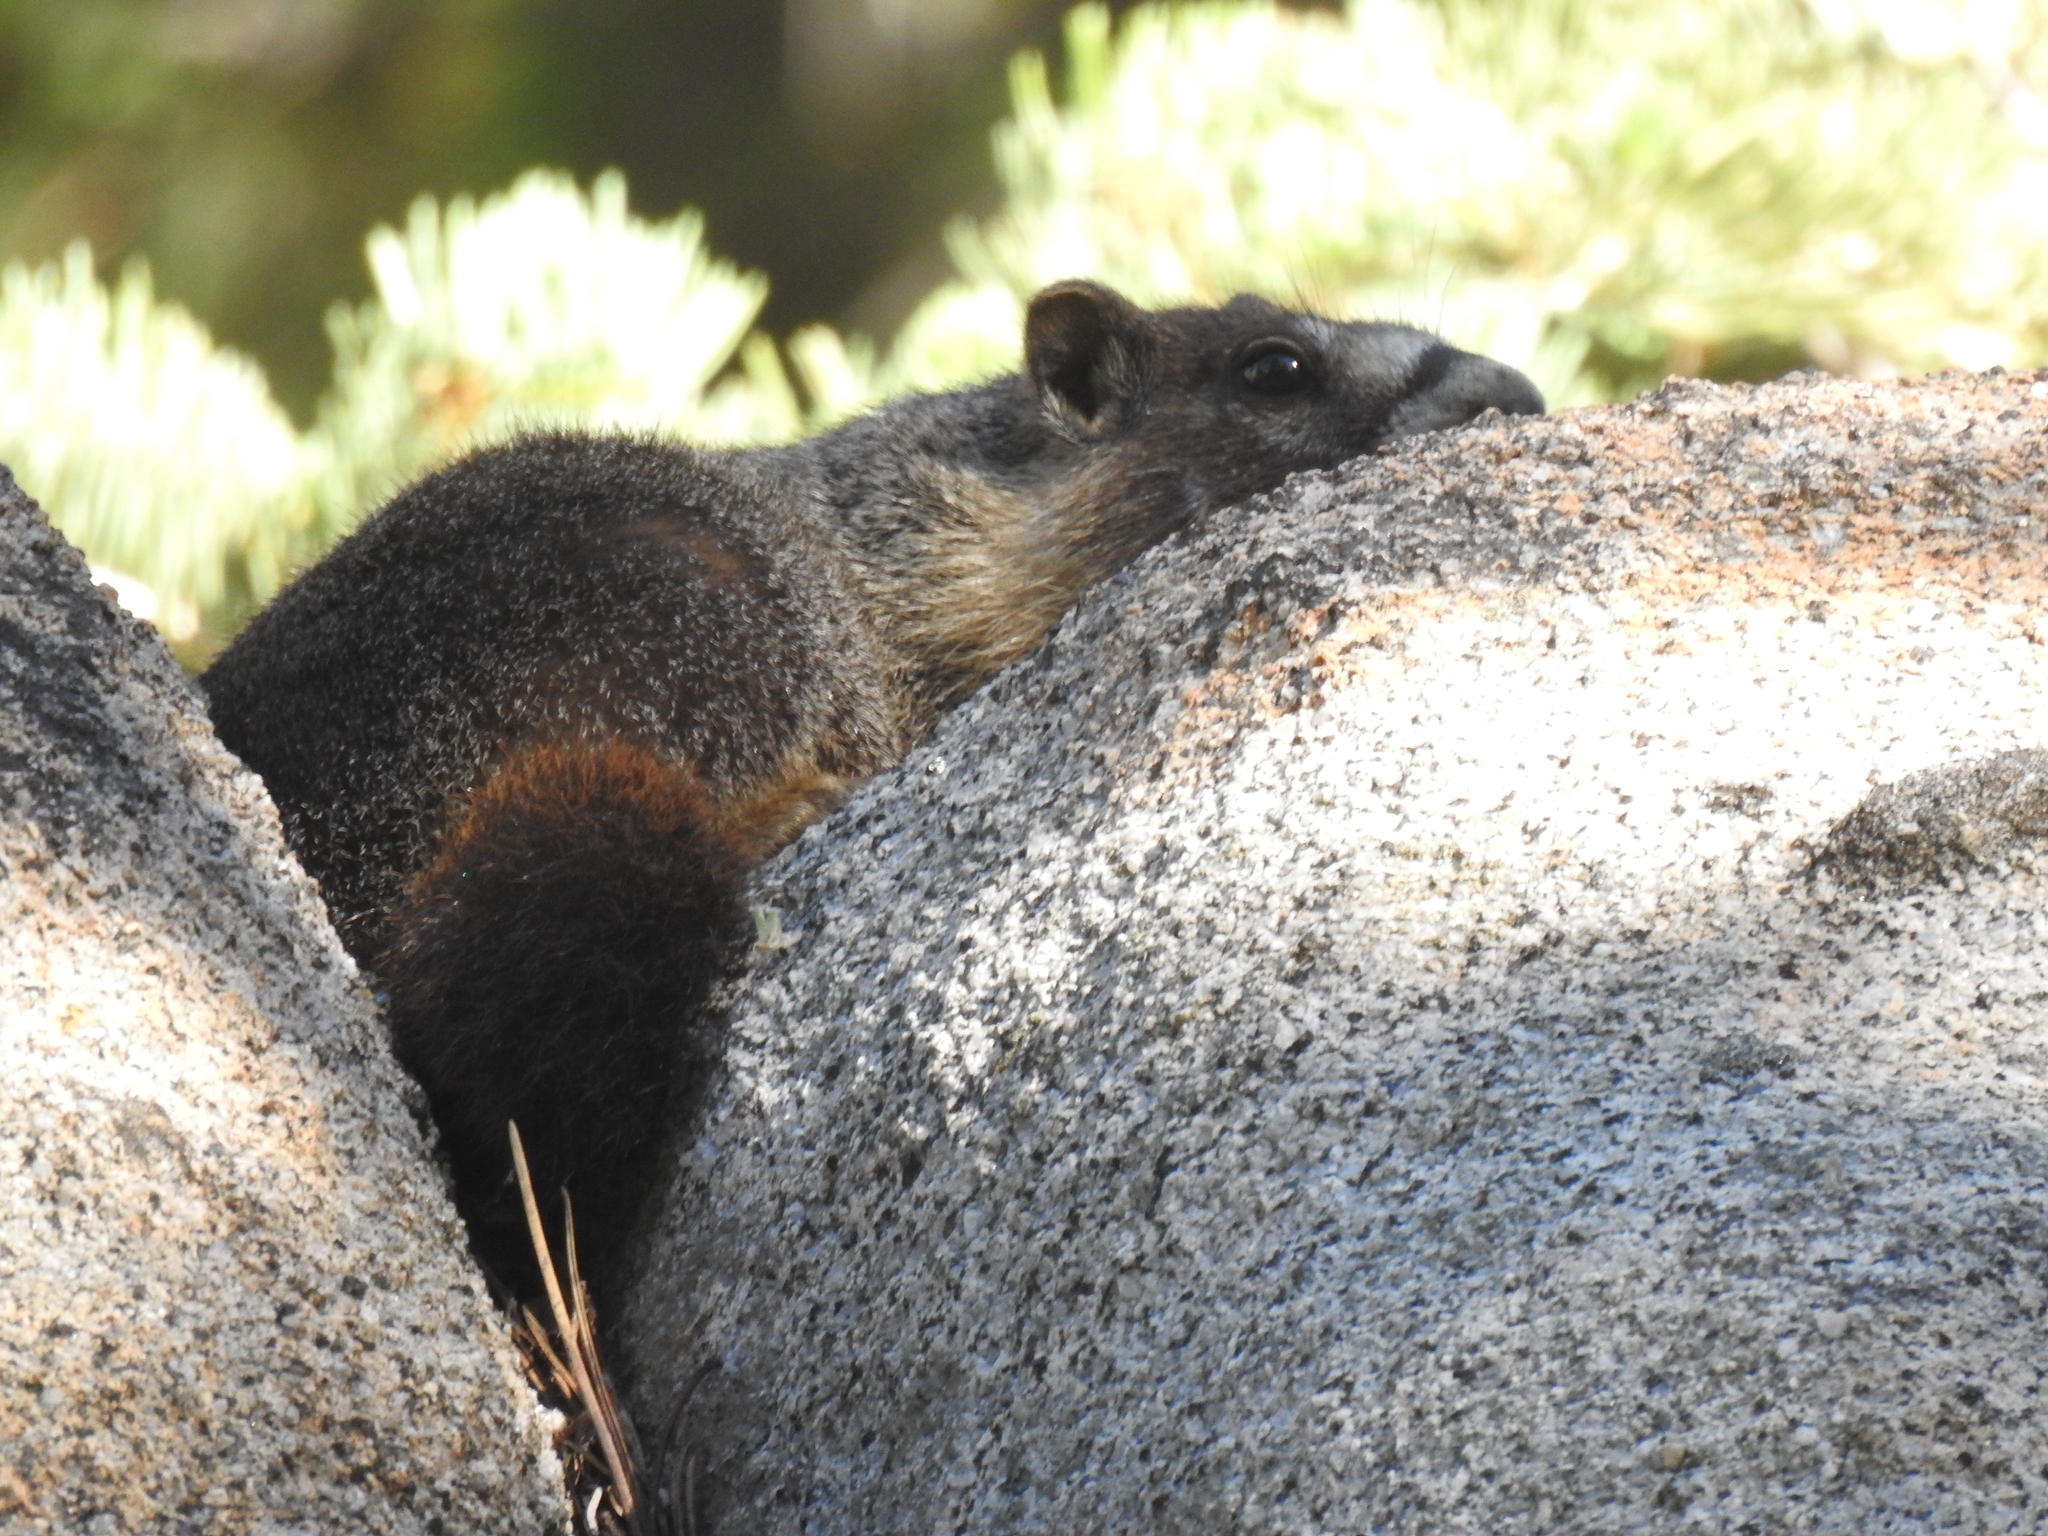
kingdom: Animalia
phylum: Chordata
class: Mammalia
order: Rodentia
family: Sciuridae
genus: Marmota
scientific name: Marmota flaviventris
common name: Yellow-bellied marmot
